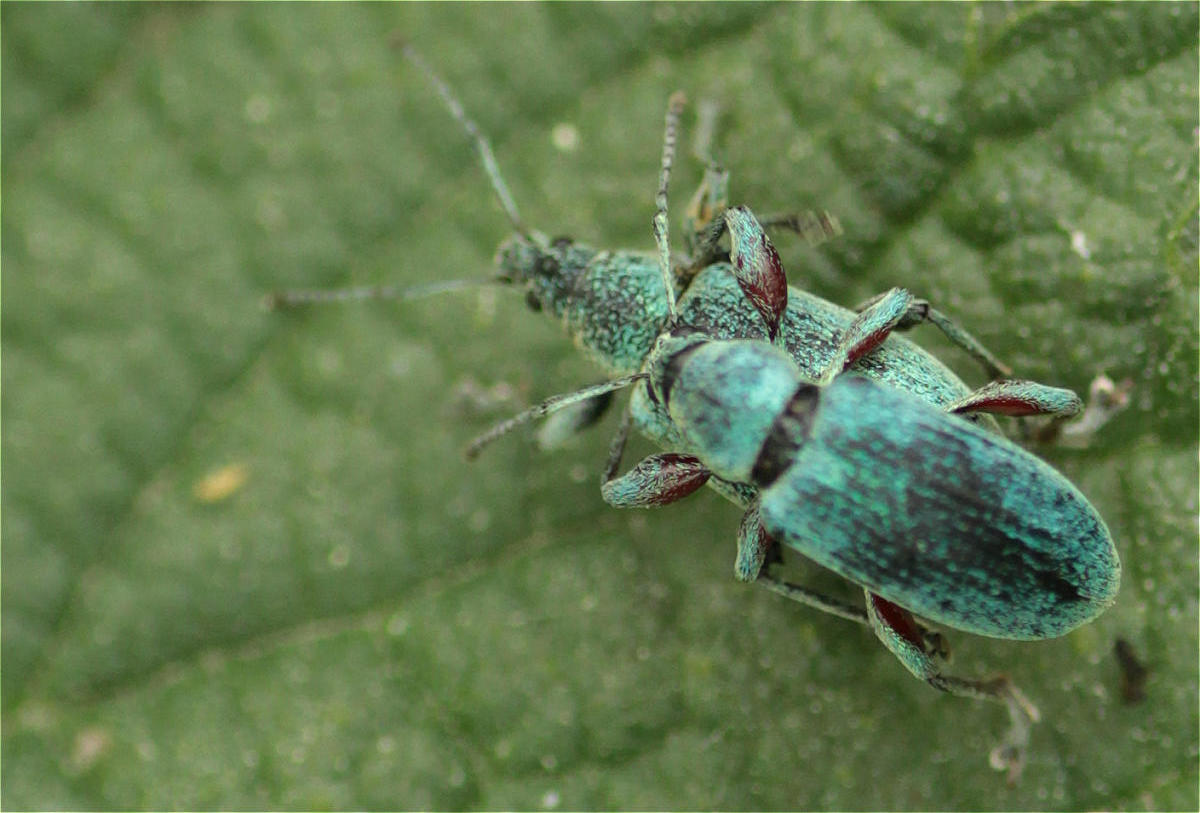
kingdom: Animalia
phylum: Arthropoda
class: Insecta
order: Coleoptera
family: Curculionidae
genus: Phyllobius
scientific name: Phyllobius pomaceus
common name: Green nettle weevil
